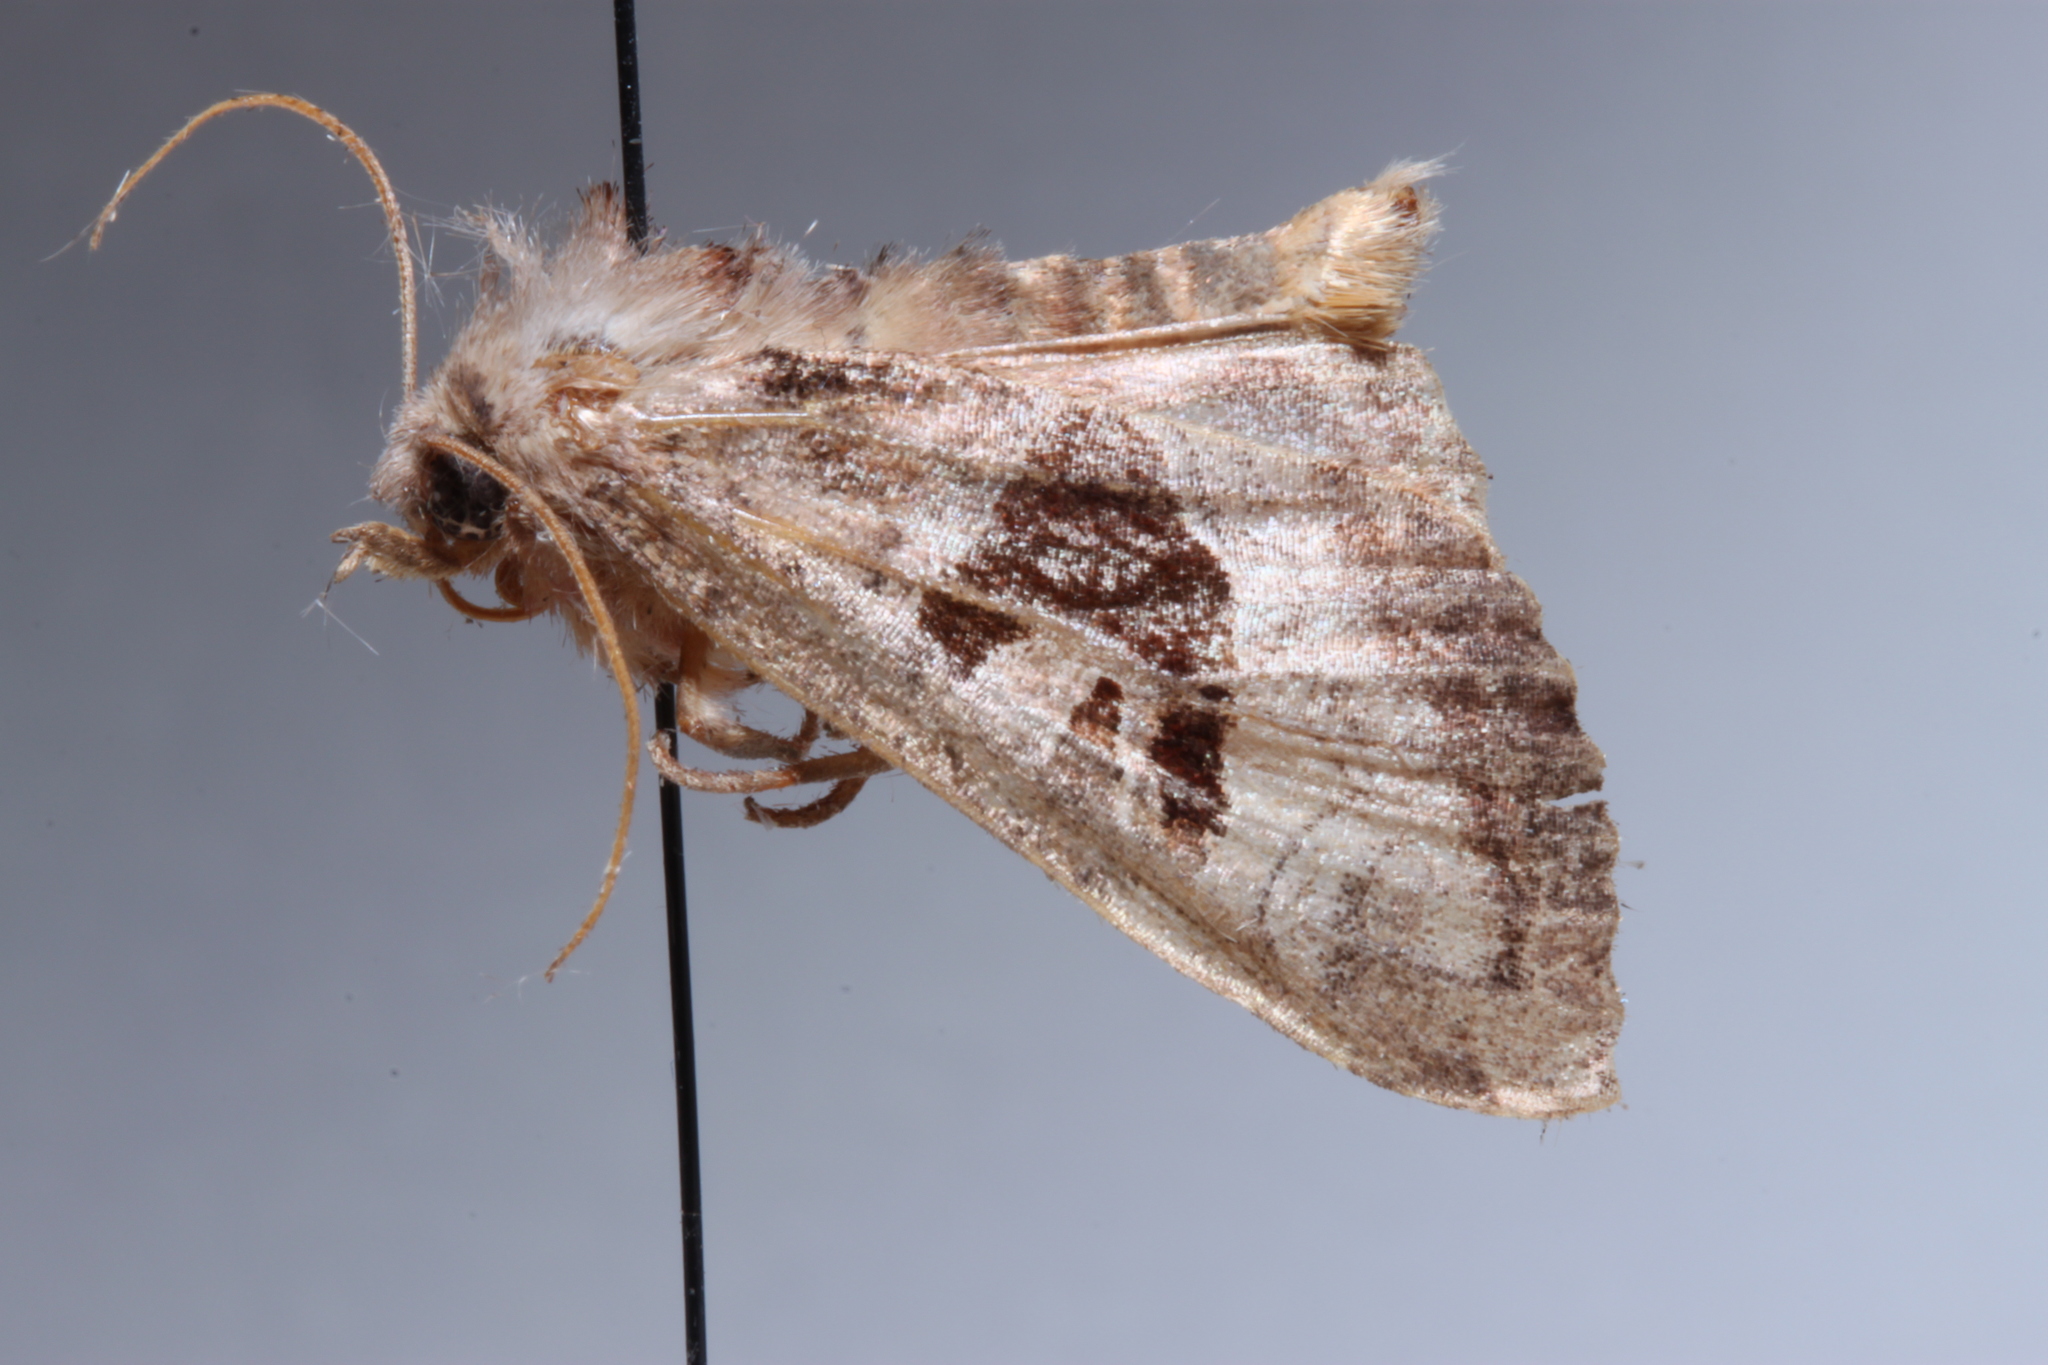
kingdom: Animalia
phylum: Arthropoda
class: Insecta
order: Lepidoptera
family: Noctuidae
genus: Phlogophora
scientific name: Phlogophora periculosa
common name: Brown angle shades
